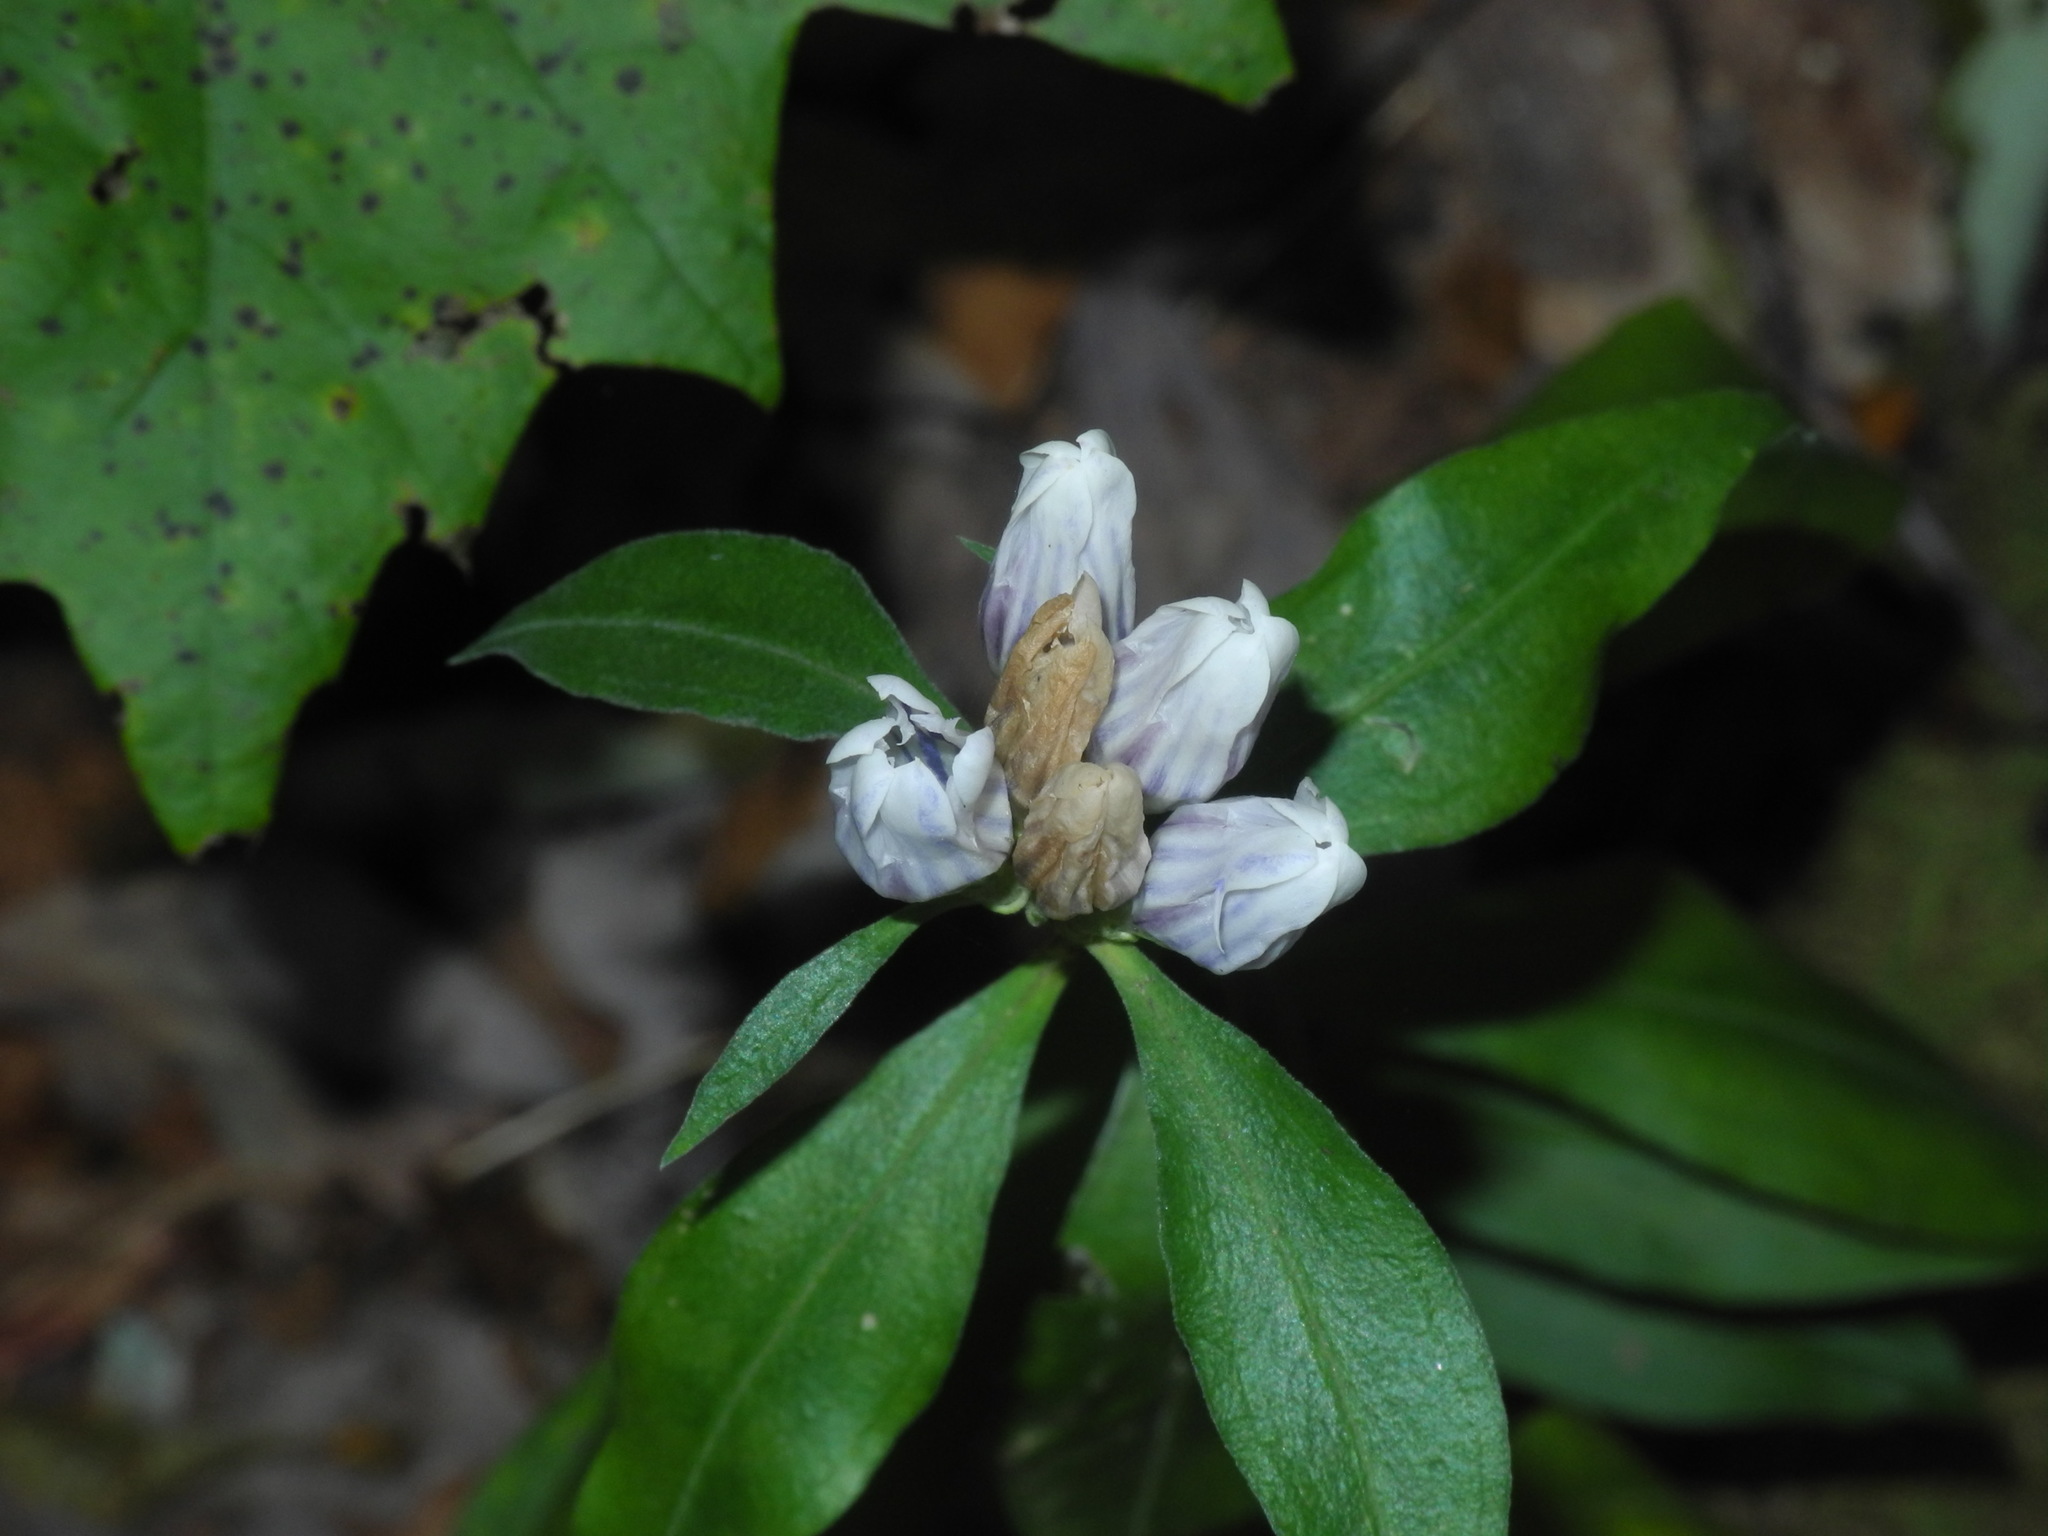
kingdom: Plantae
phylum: Tracheophyta
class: Magnoliopsida
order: Gentianales
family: Gentianaceae
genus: Gentiana
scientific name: Gentiana decora
